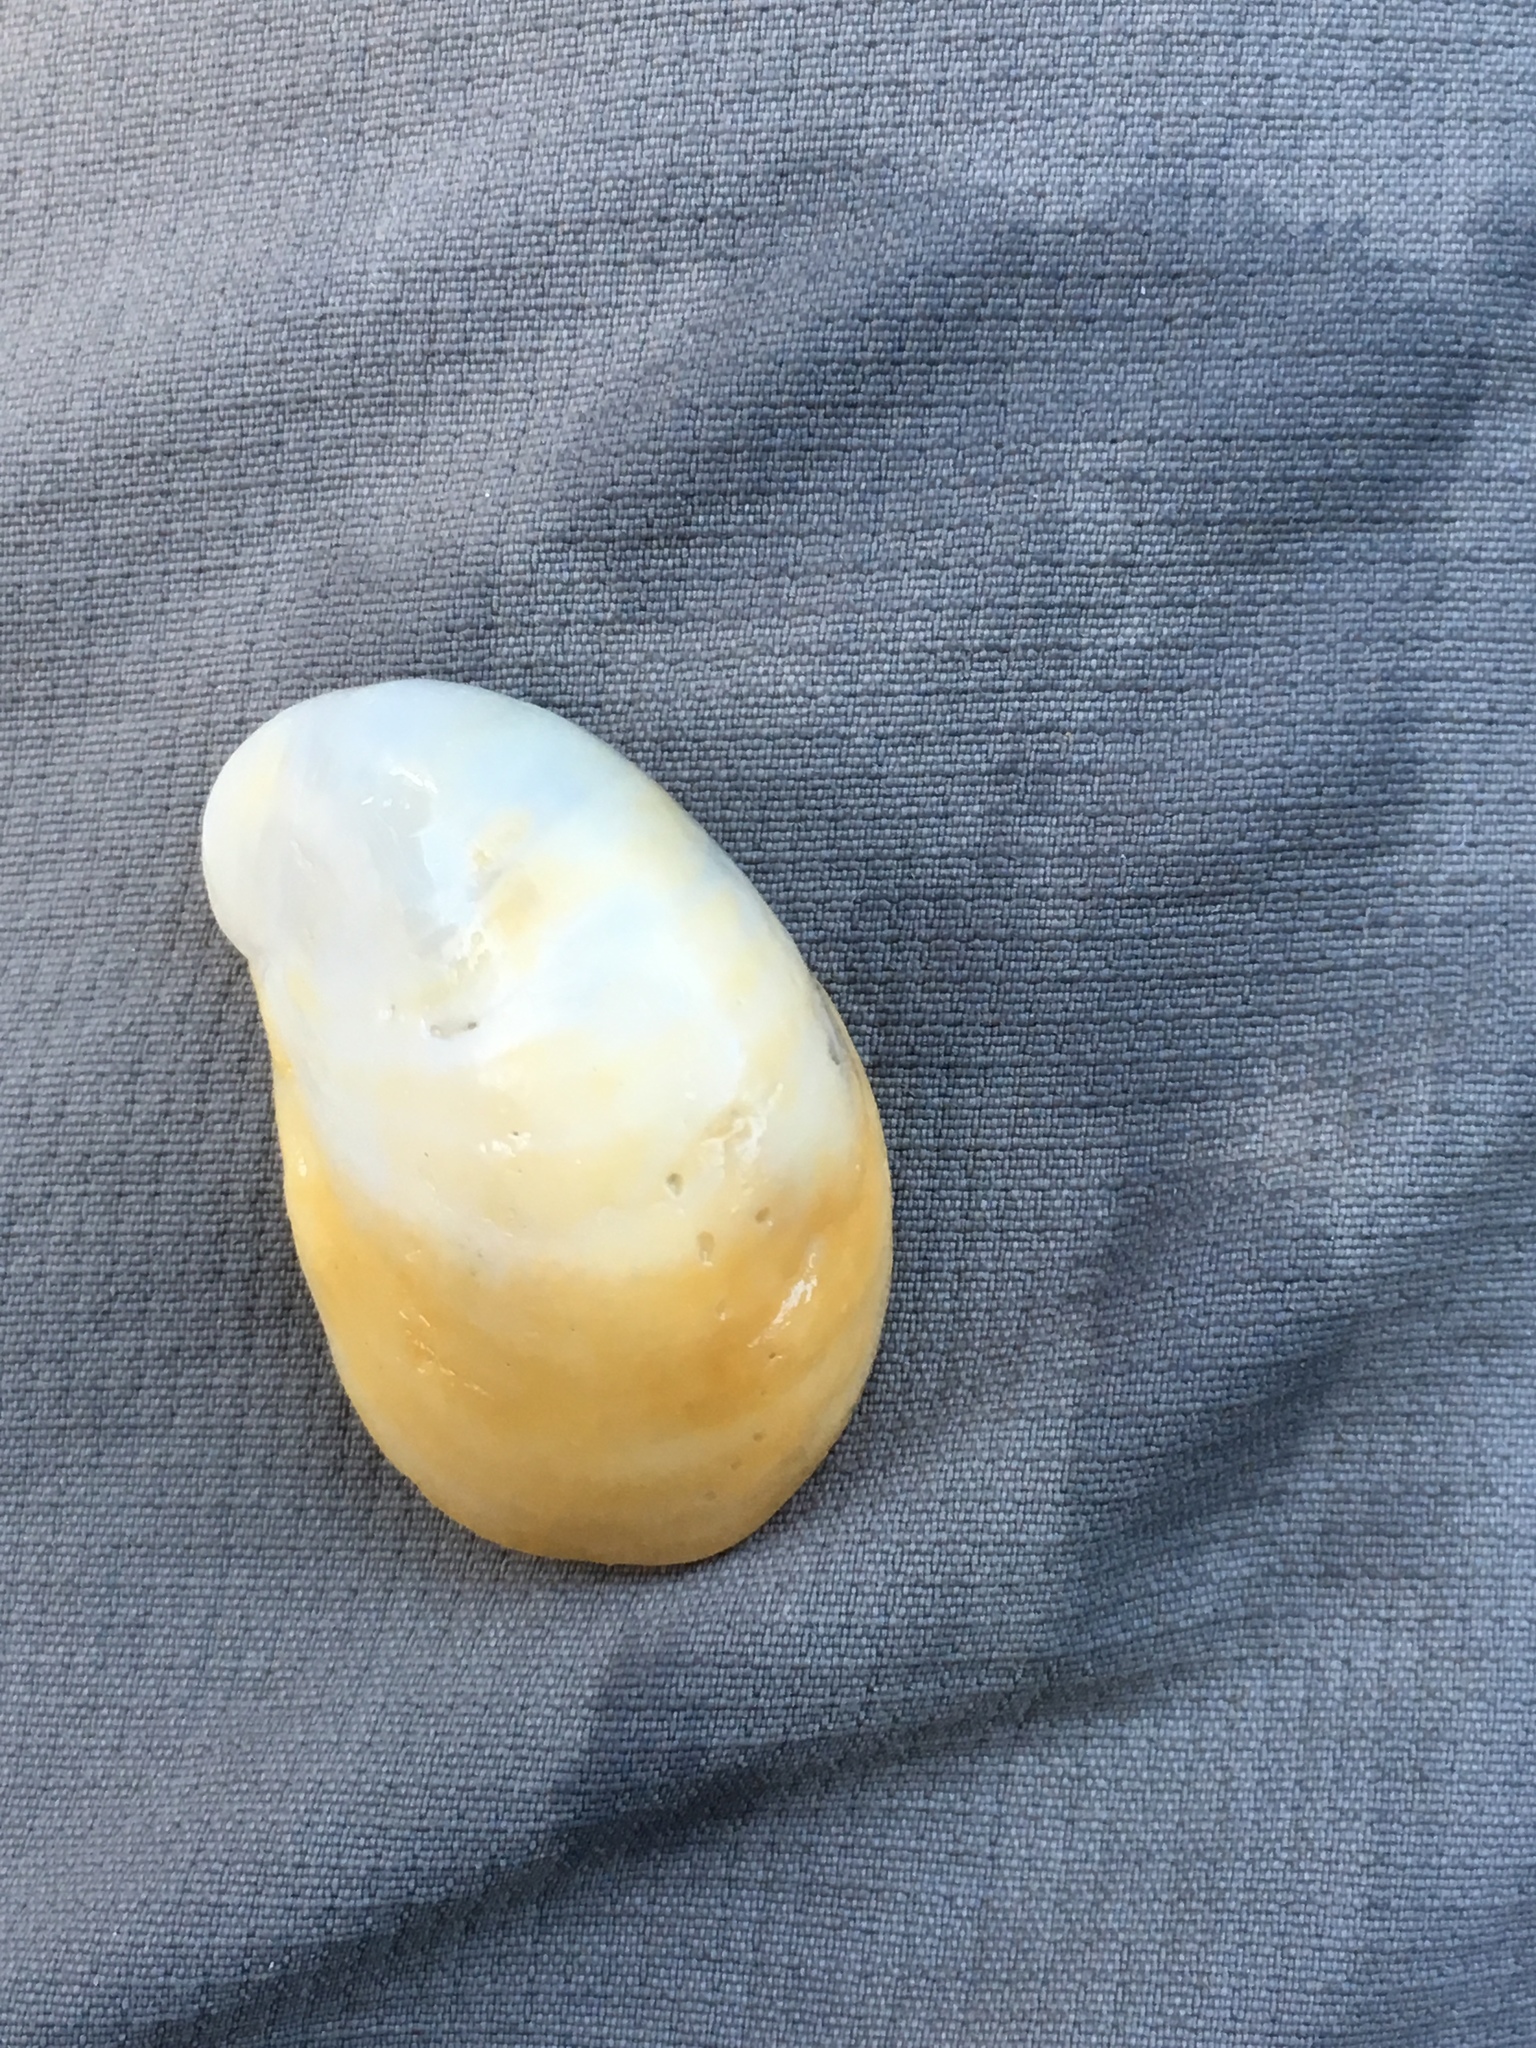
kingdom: Animalia
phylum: Mollusca
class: Gastropoda
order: Littorinimorpha
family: Calyptraeidae
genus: Crepidula
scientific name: Crepidula fornicata
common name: Slipper limpet
